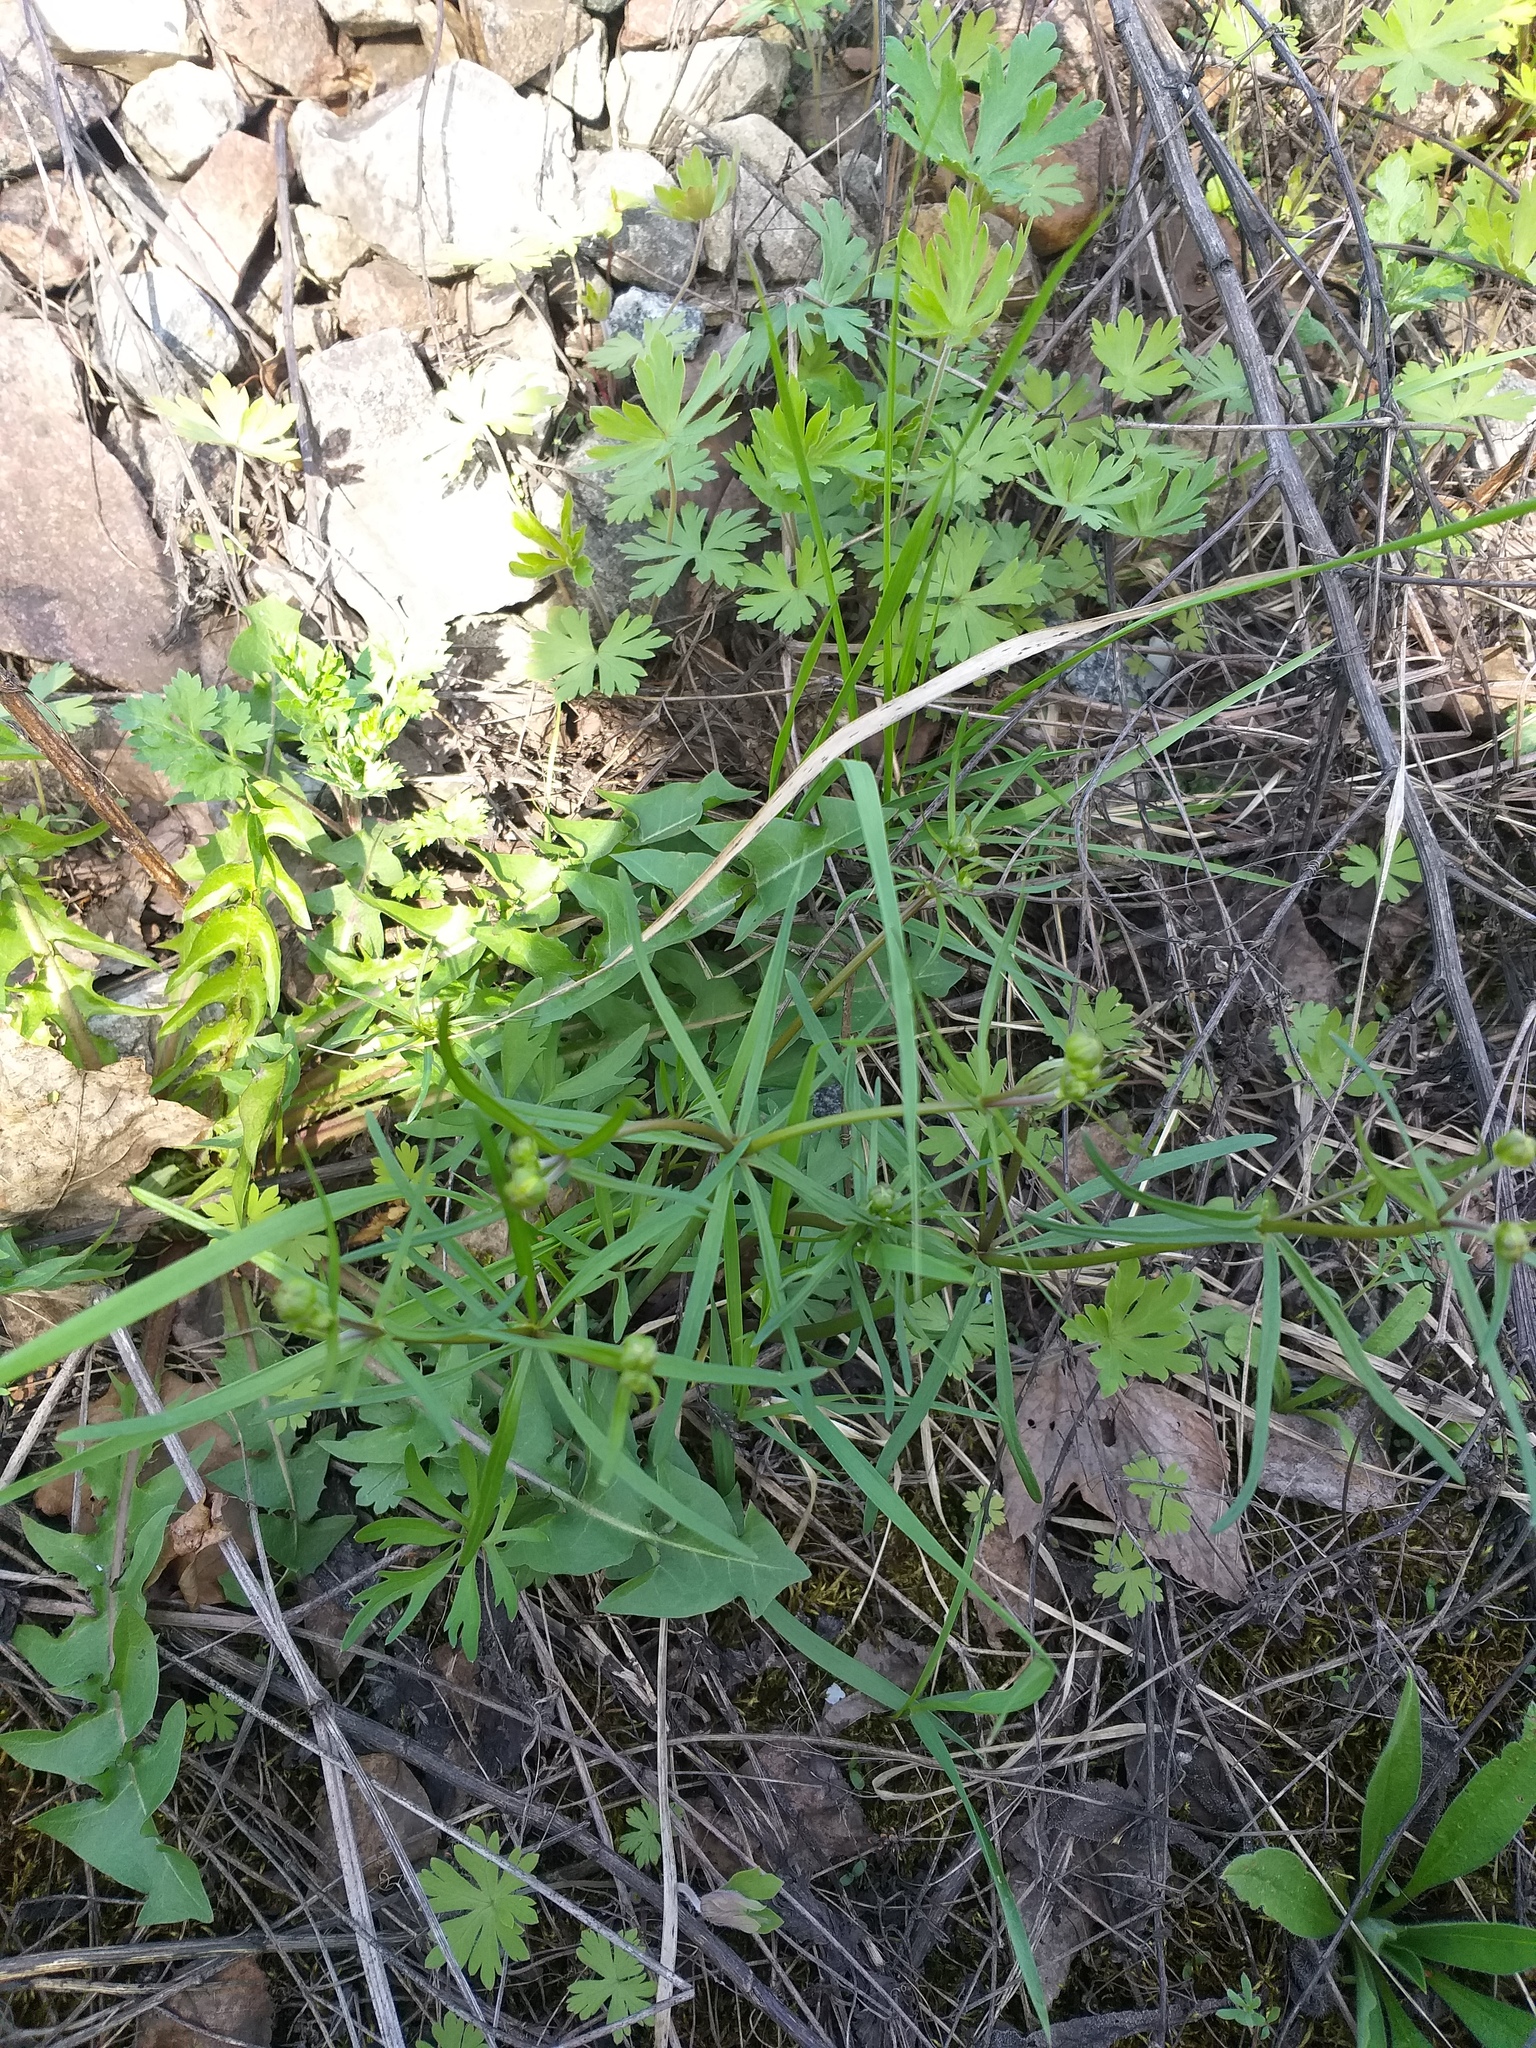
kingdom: Plantae
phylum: Tracheophyta
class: Magnoliopsida
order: Ranunculales
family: Ranunculaceae
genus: Ranunculus
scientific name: Ranunculus auricomus
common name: Goldilocks buttercup
